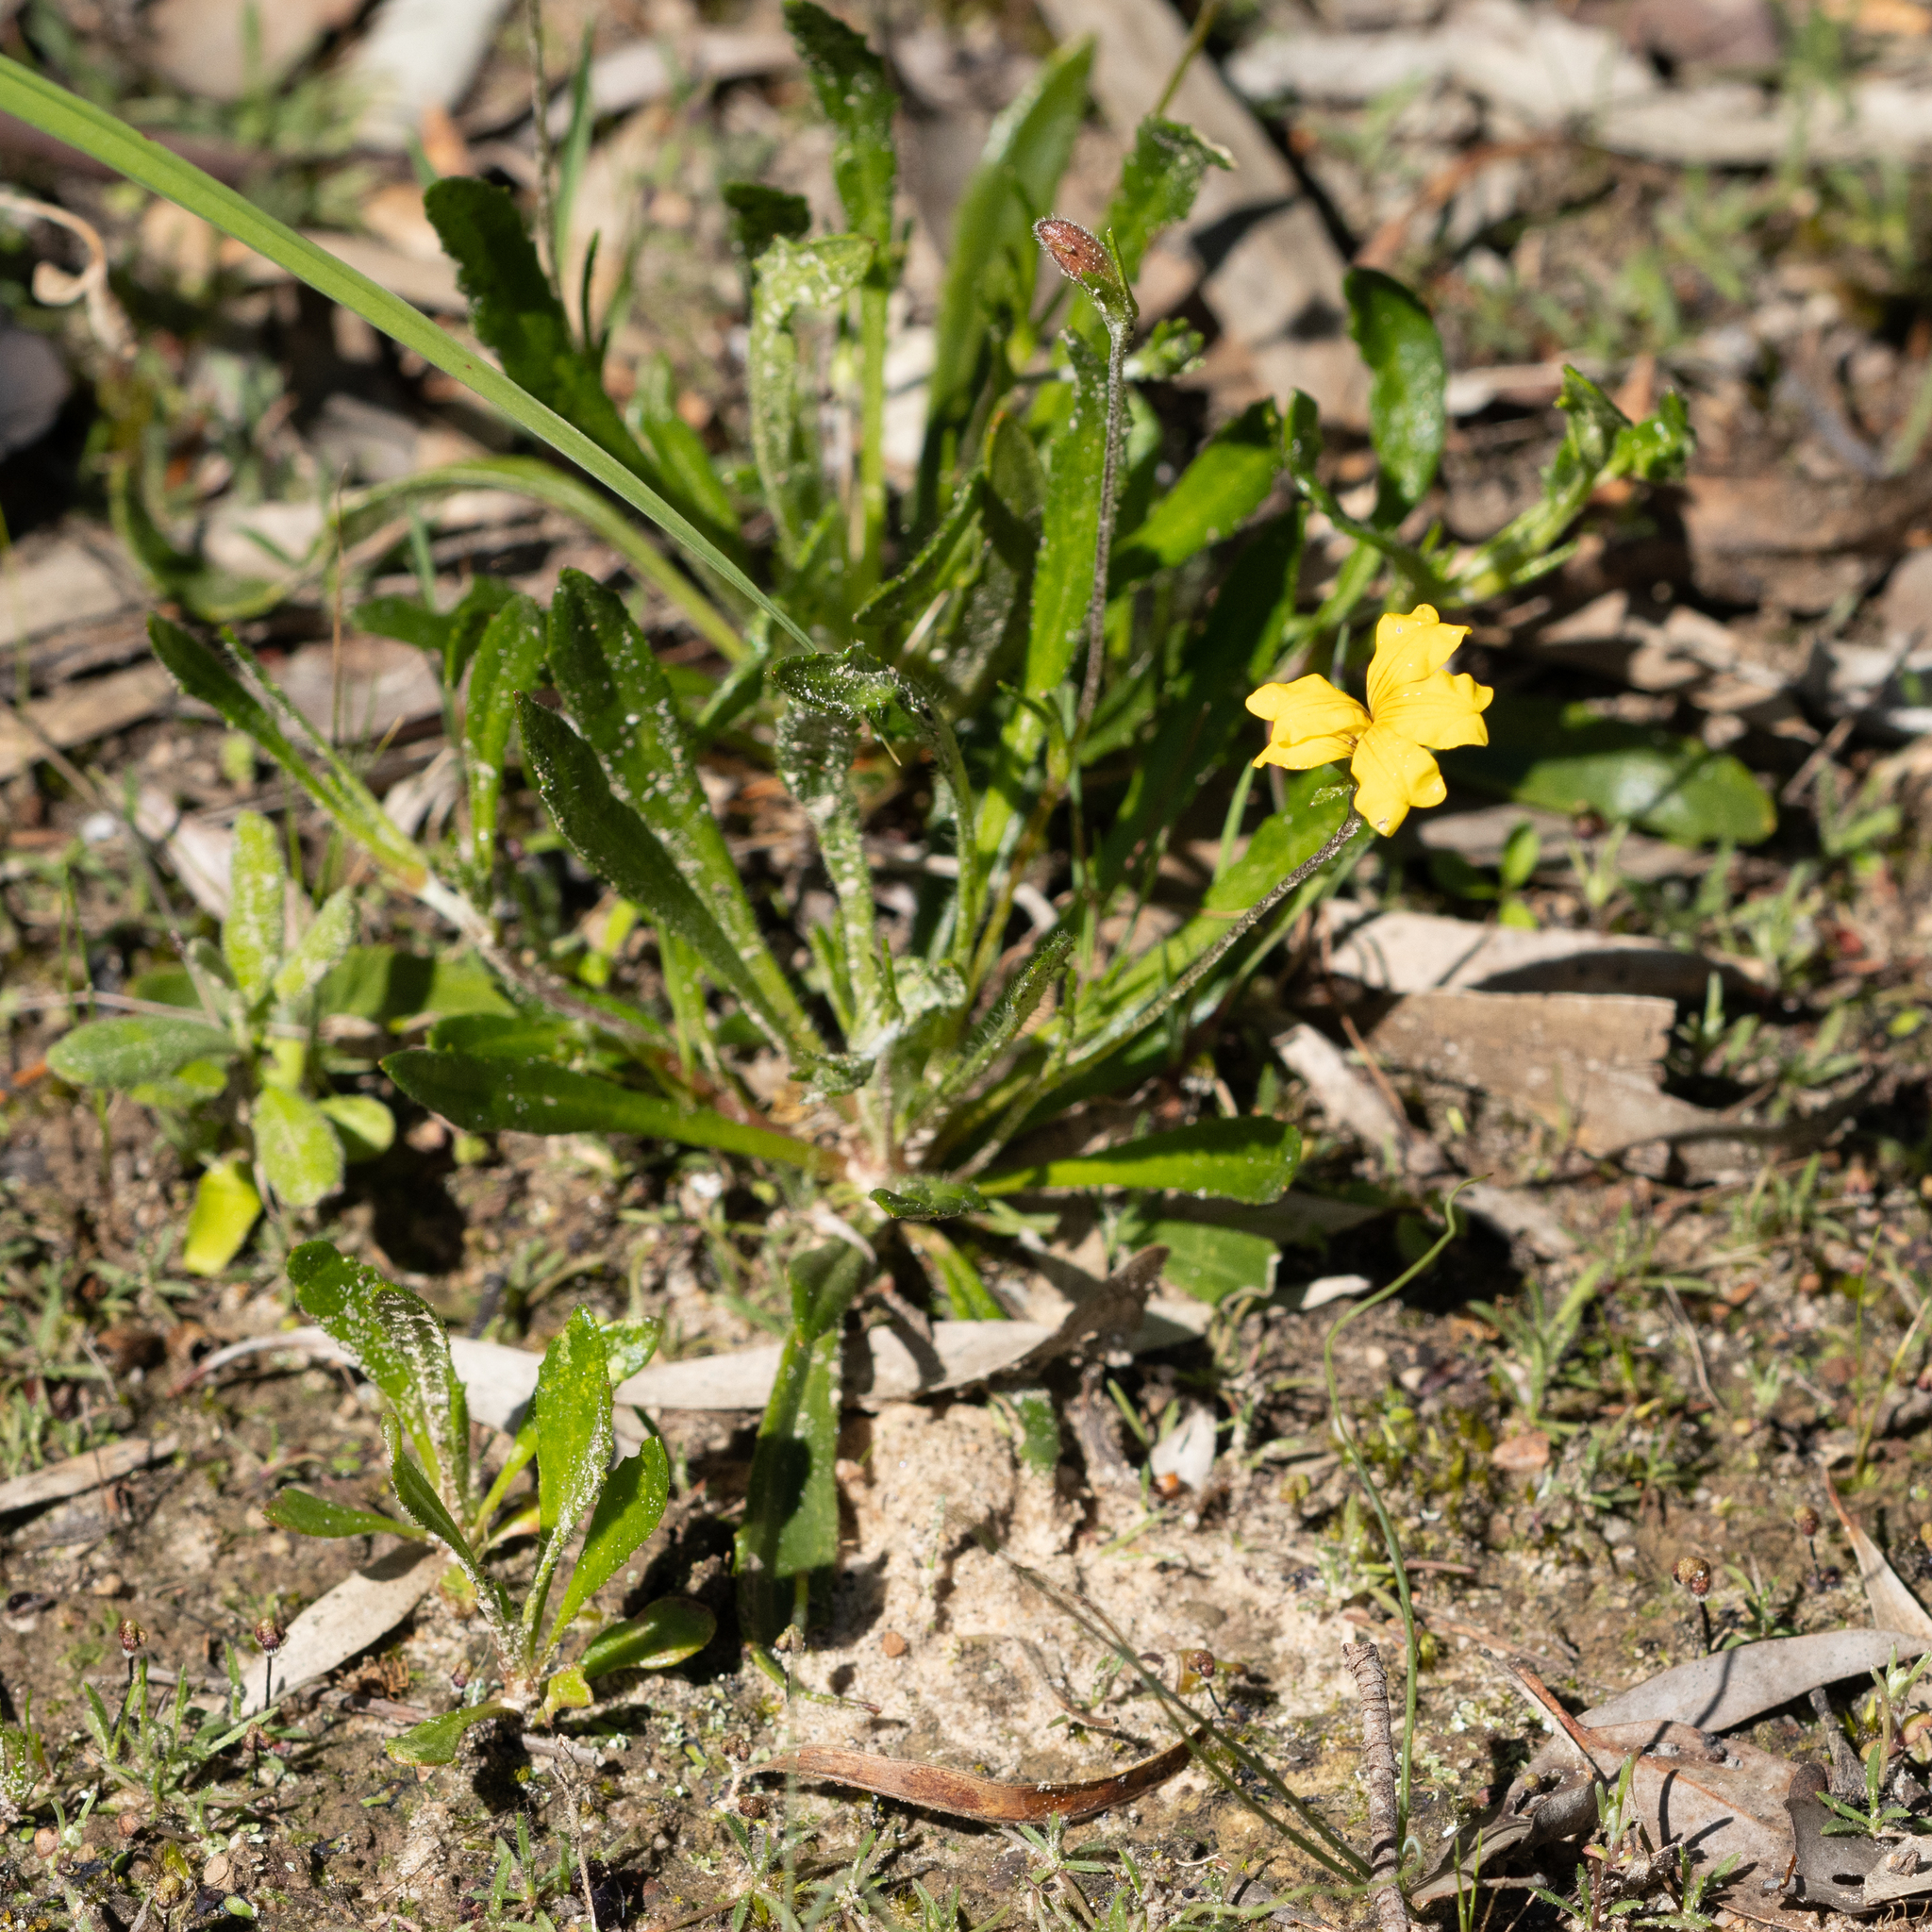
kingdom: Plantae
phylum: Tracheophyta
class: Magnoliopsida
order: Asterales
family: Goodeniaceae
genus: Goodenia
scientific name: Goodenia geniculata
